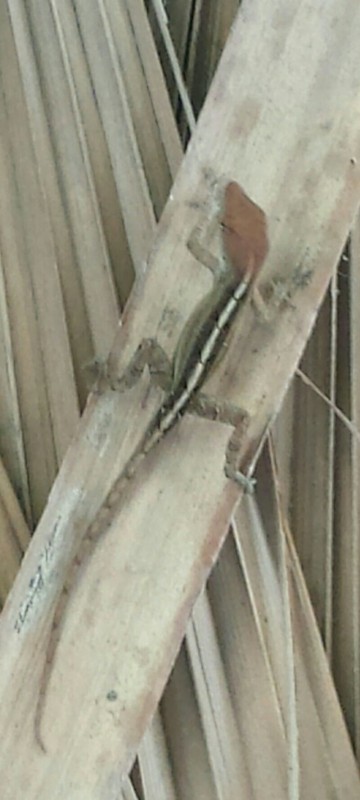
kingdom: Animalia
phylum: Chordata
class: Squamata
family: Dactyloidae
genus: Anolis
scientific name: Anolis sagrei
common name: Brown anole
